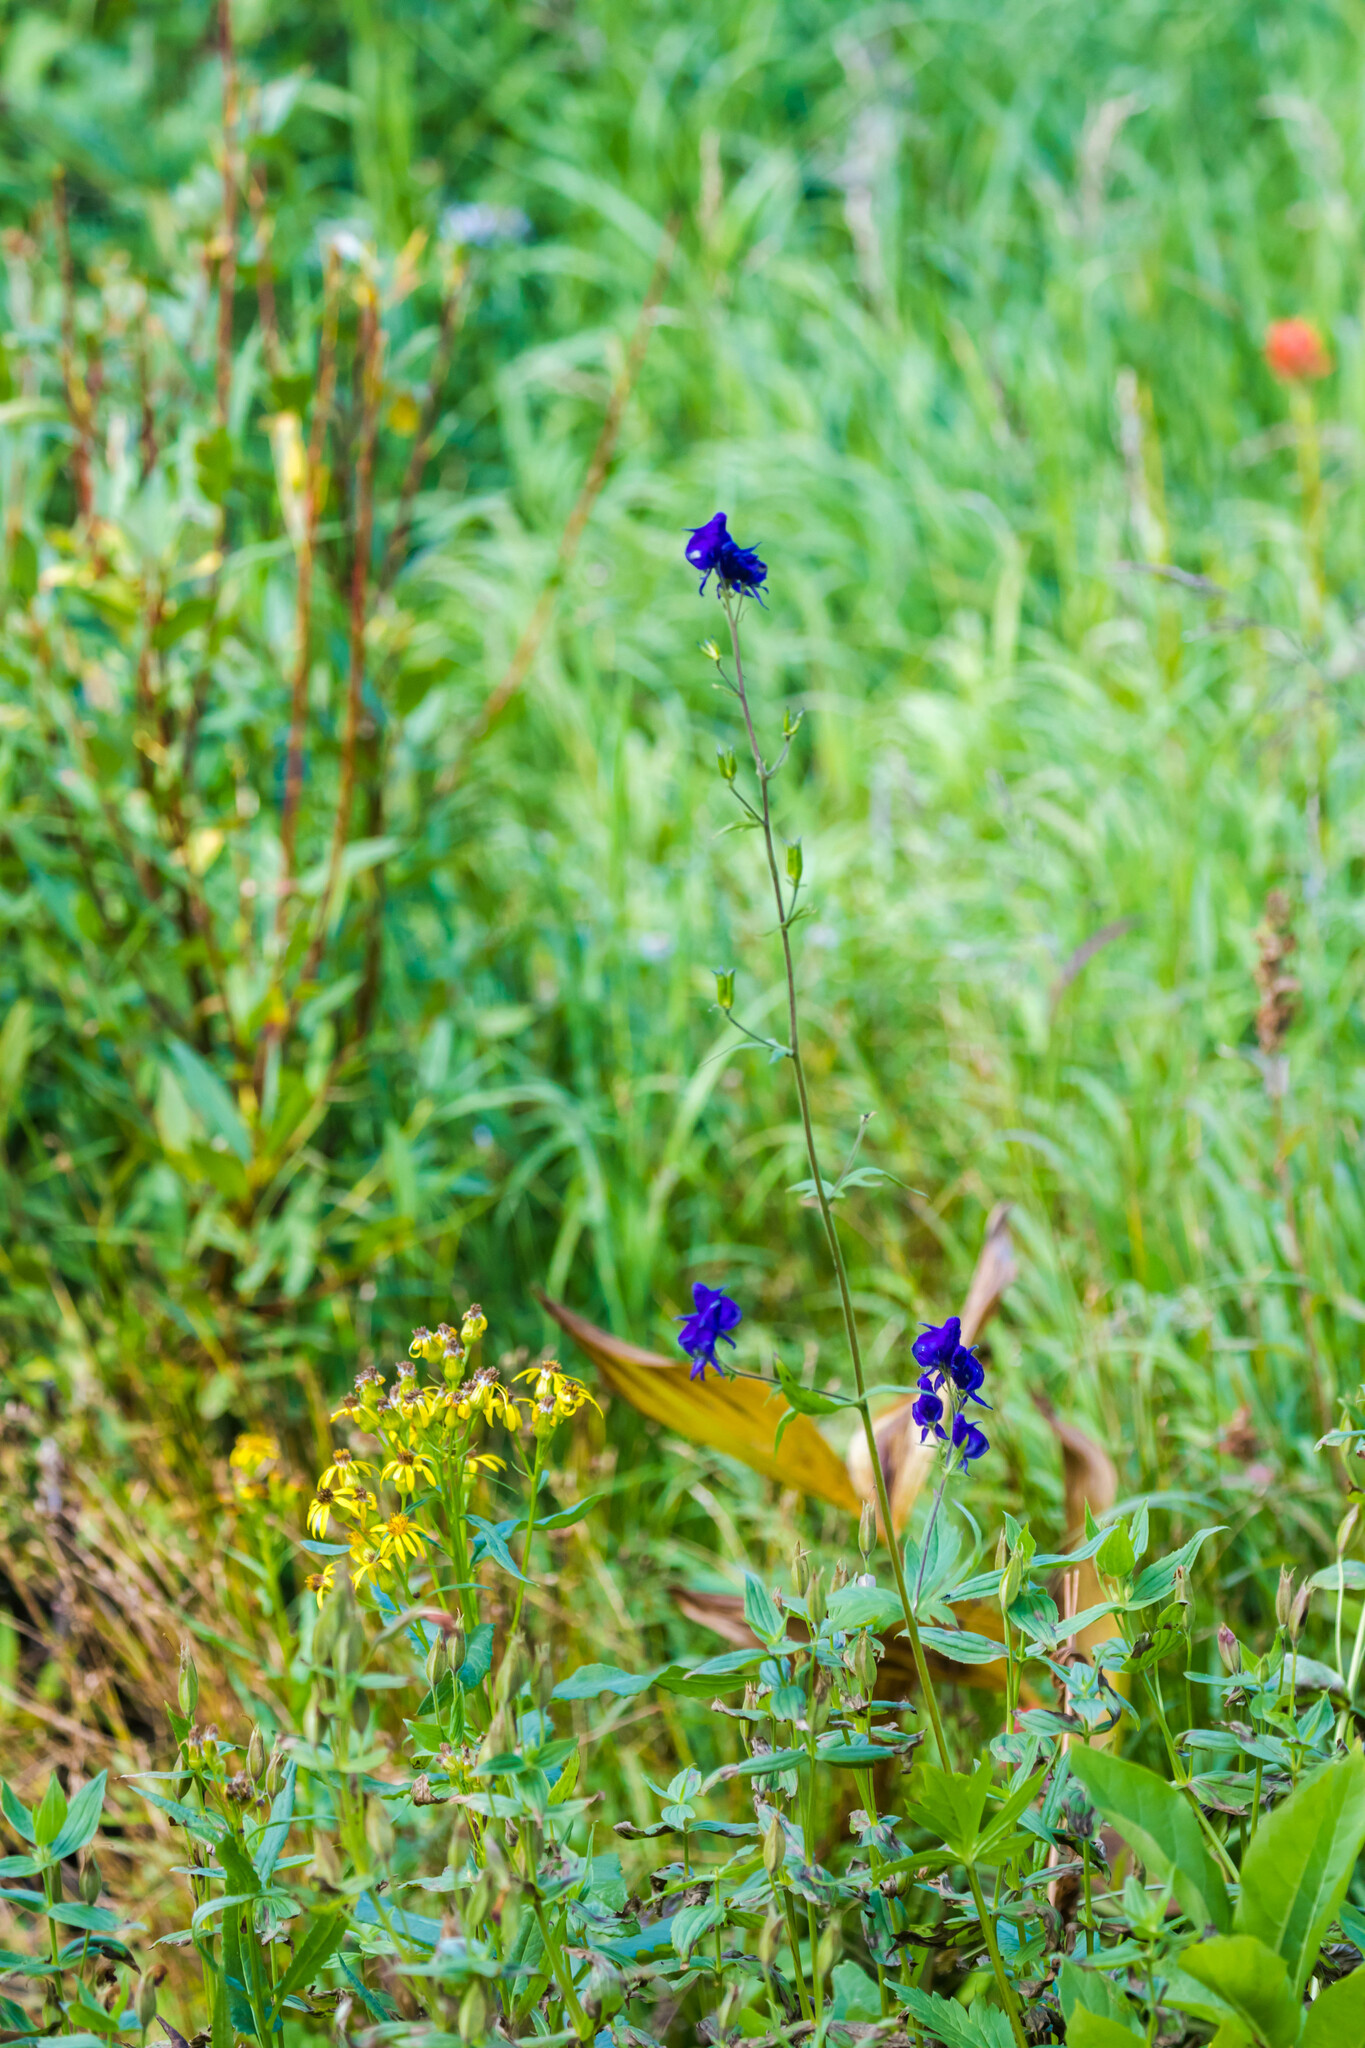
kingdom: Plantae
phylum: Tracheophyta
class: Magnoliopsida
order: Ranunculales
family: Ranunculaceae
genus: Aconitum
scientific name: Aconitum columbianum
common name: Columbia aconite
